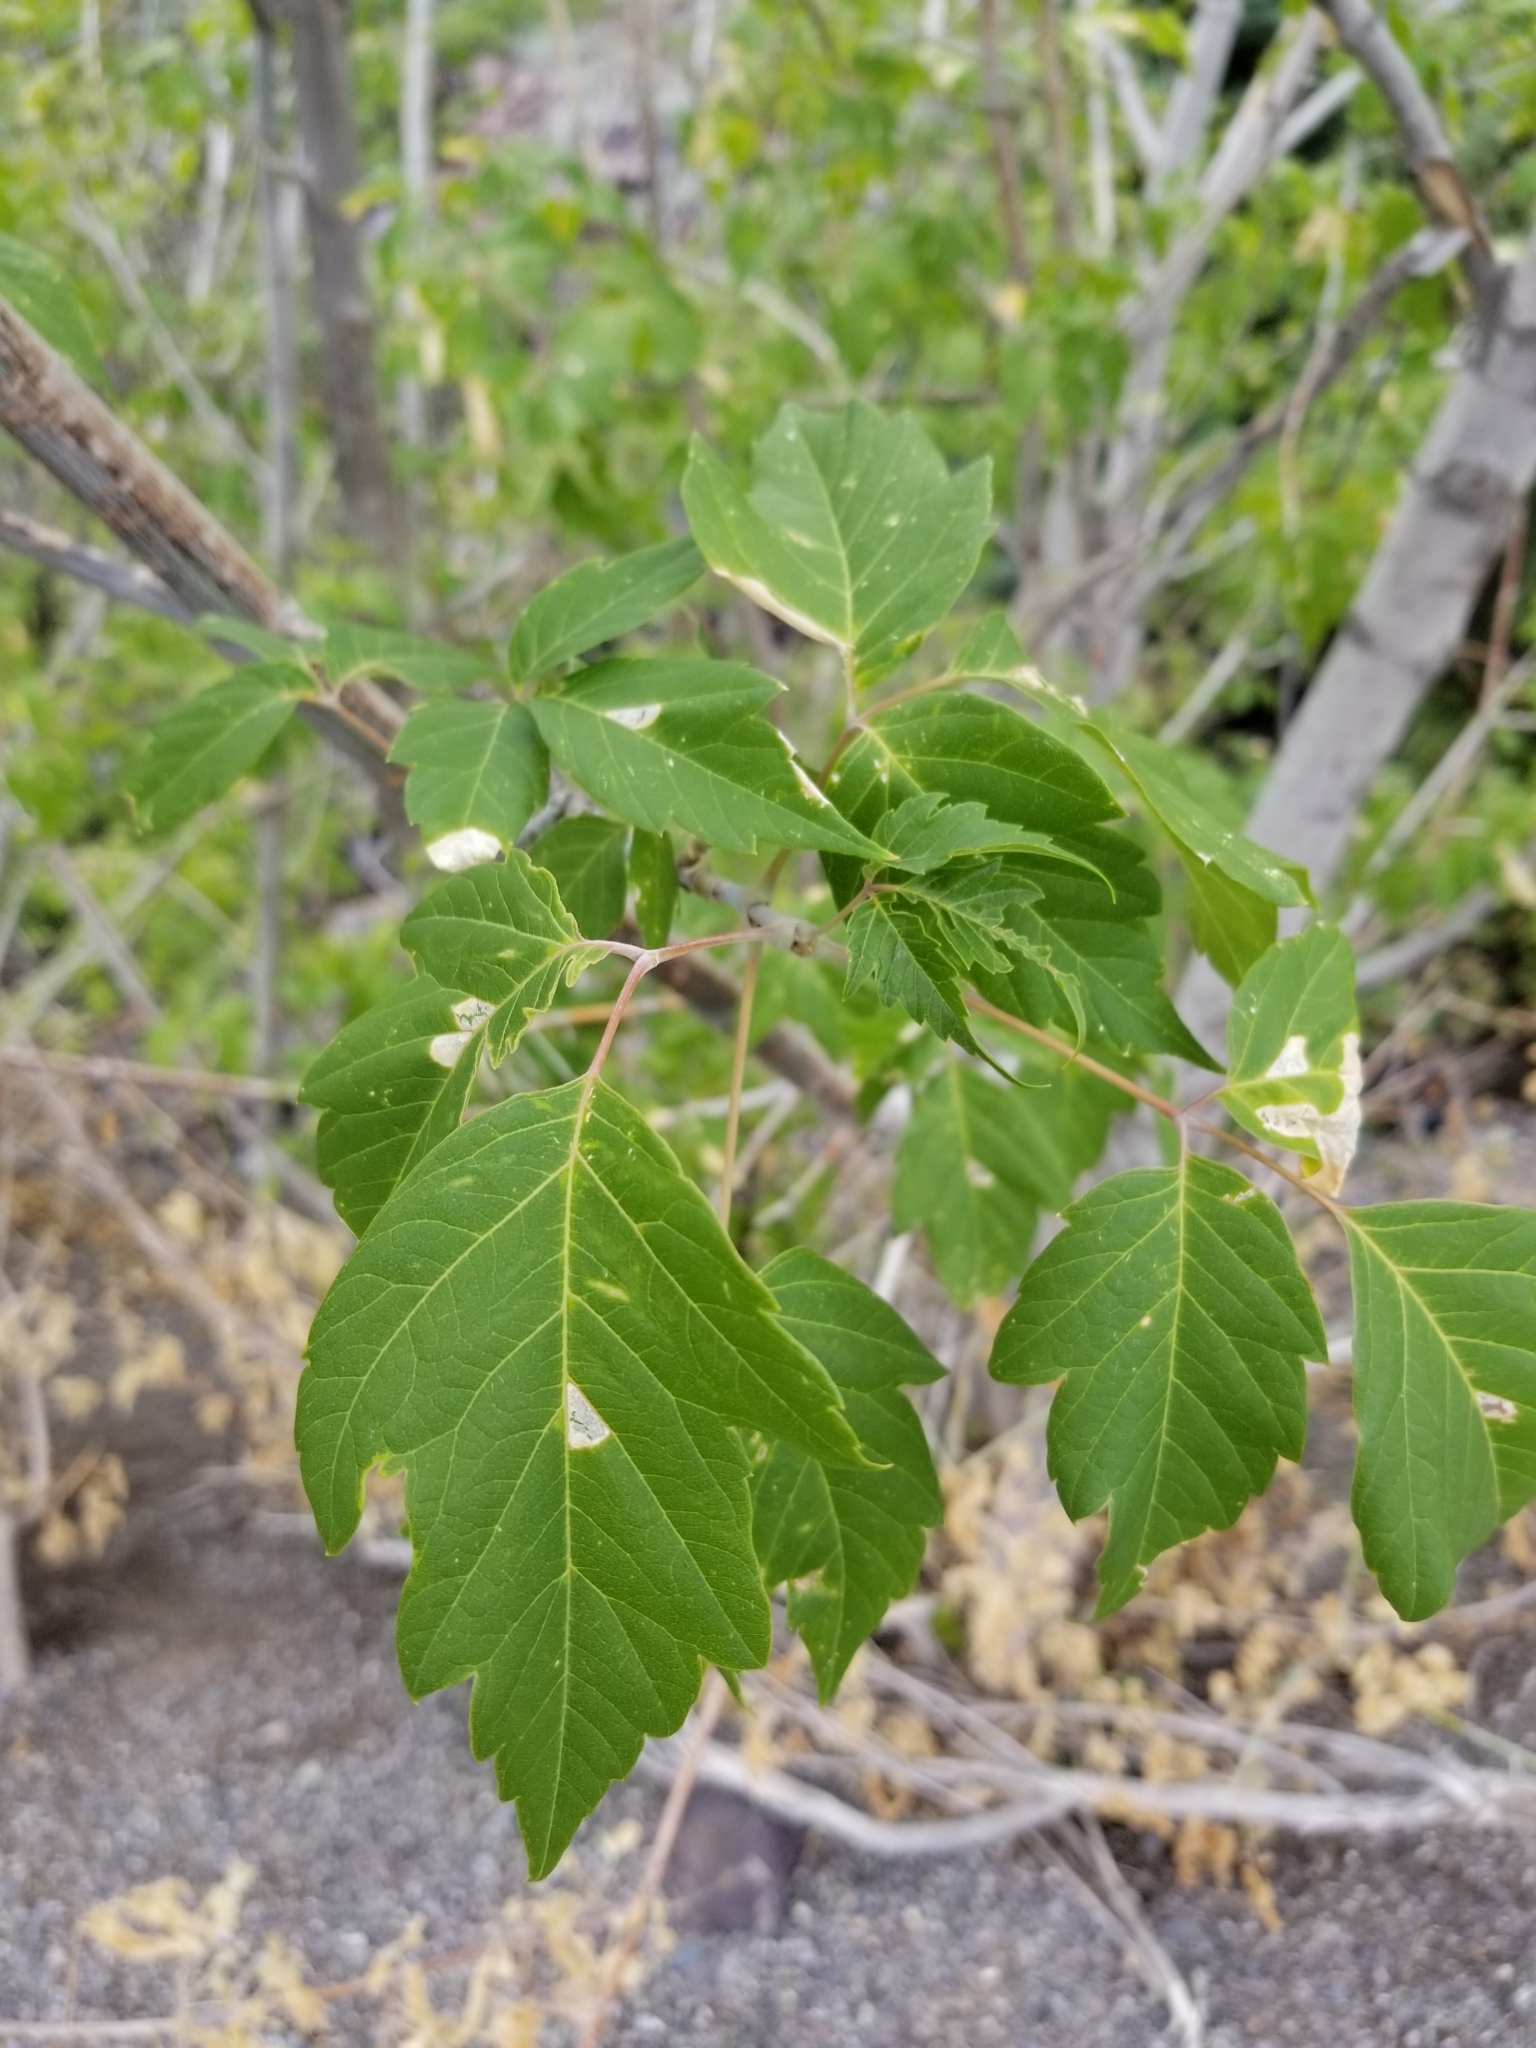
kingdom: Plantae
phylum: Tracheophyta
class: Magnoliopsida
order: Sapindales
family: Sapindaceae
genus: Acer
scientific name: Acer negundo
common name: Ashleaf maple
